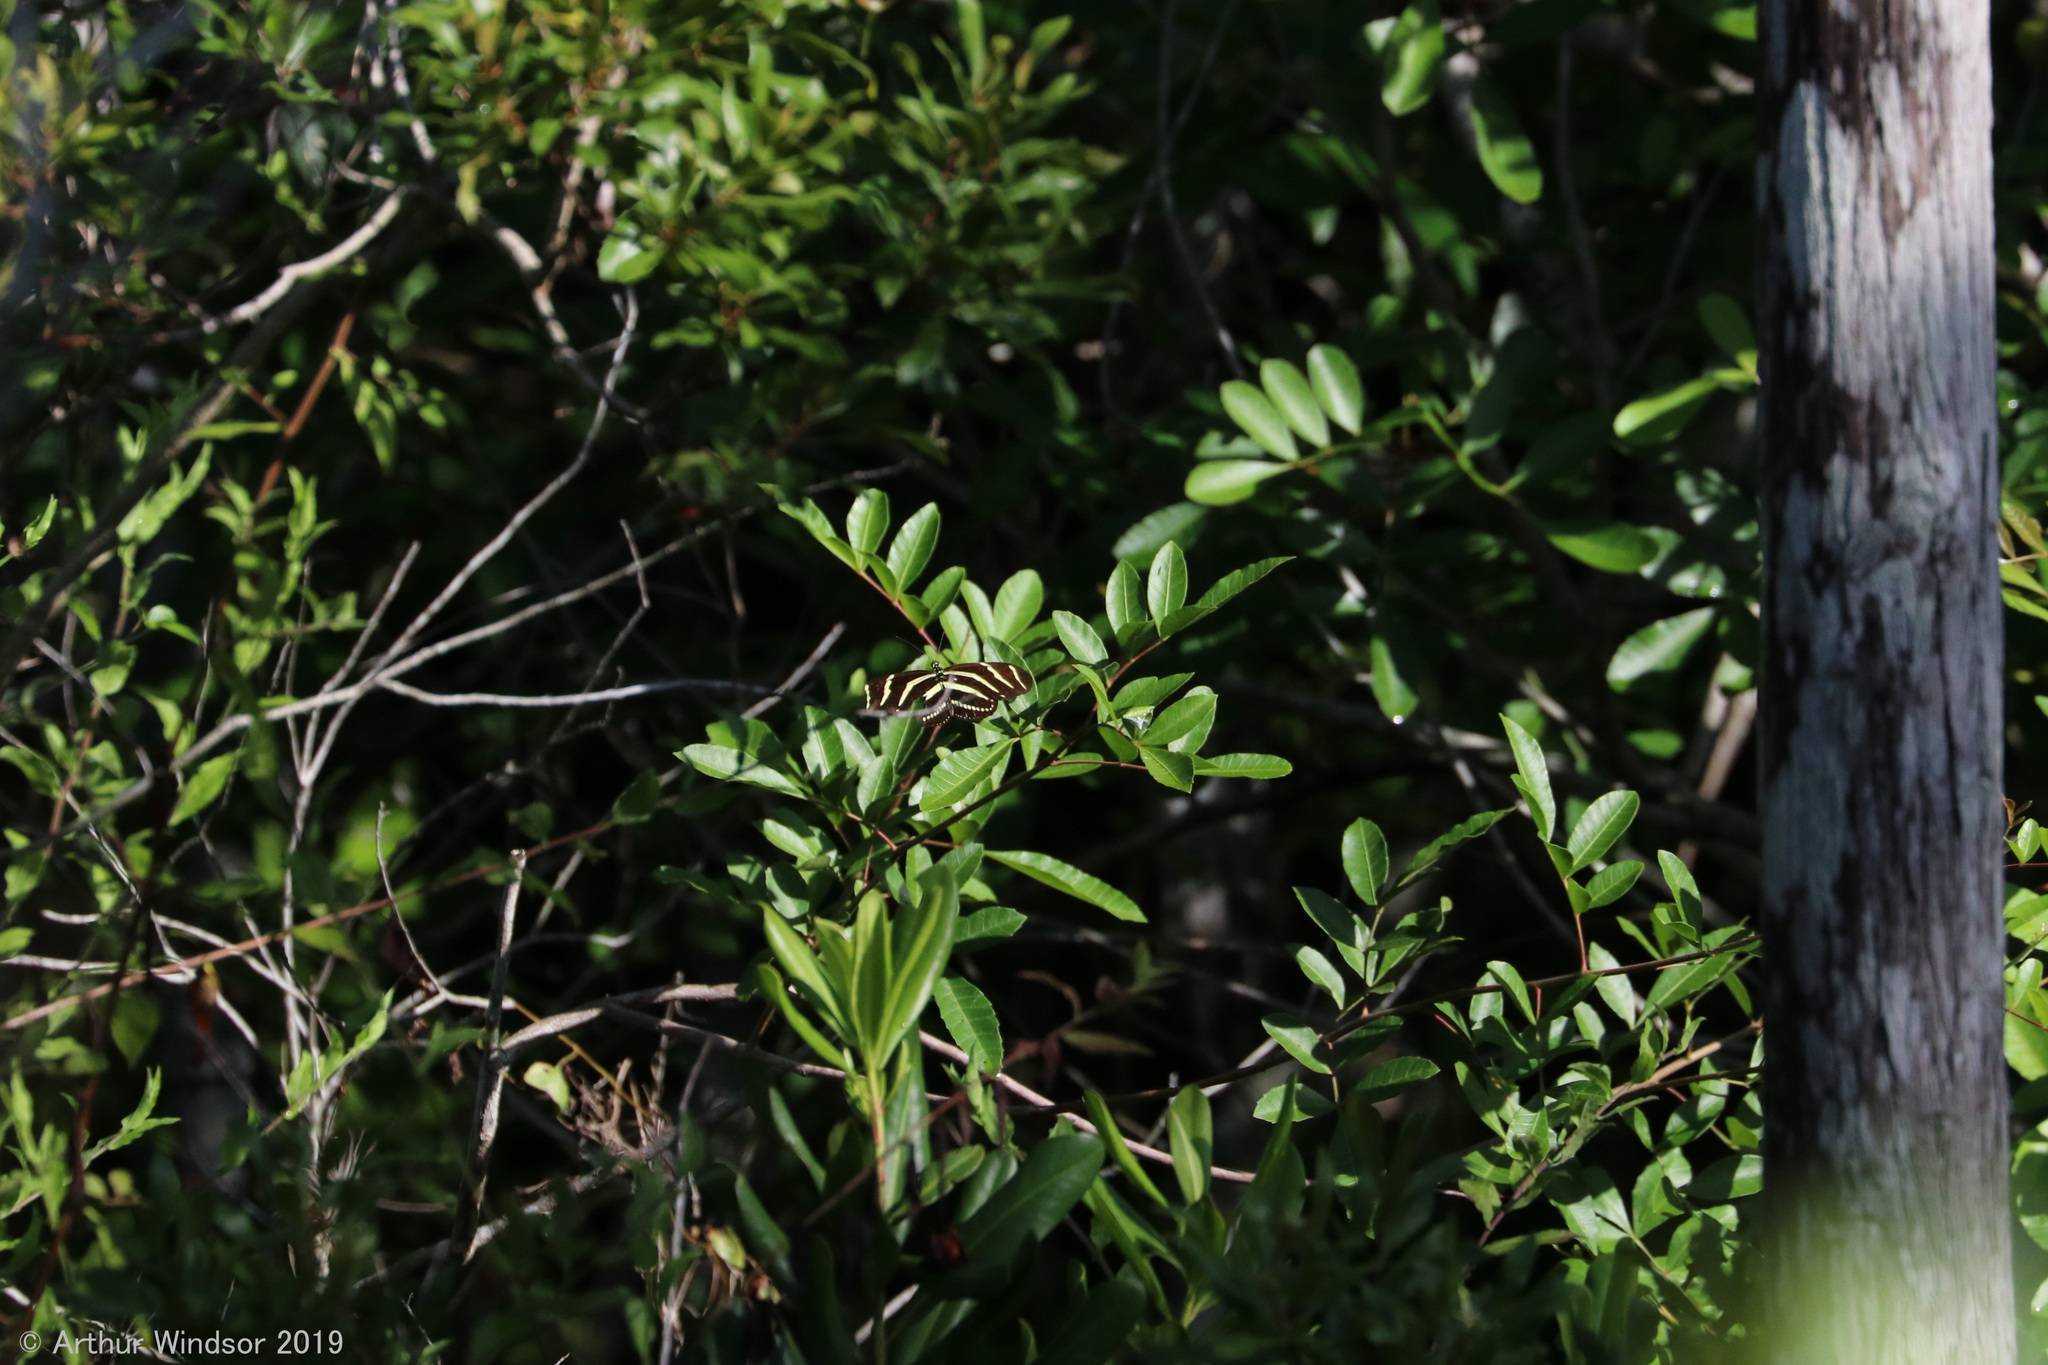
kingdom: Animalia
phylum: Arthropoda
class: Insecta
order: Lepidoptera
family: Nymphalidae
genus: Heliconius
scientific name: Heliconius charithonia
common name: Zebra long wing
